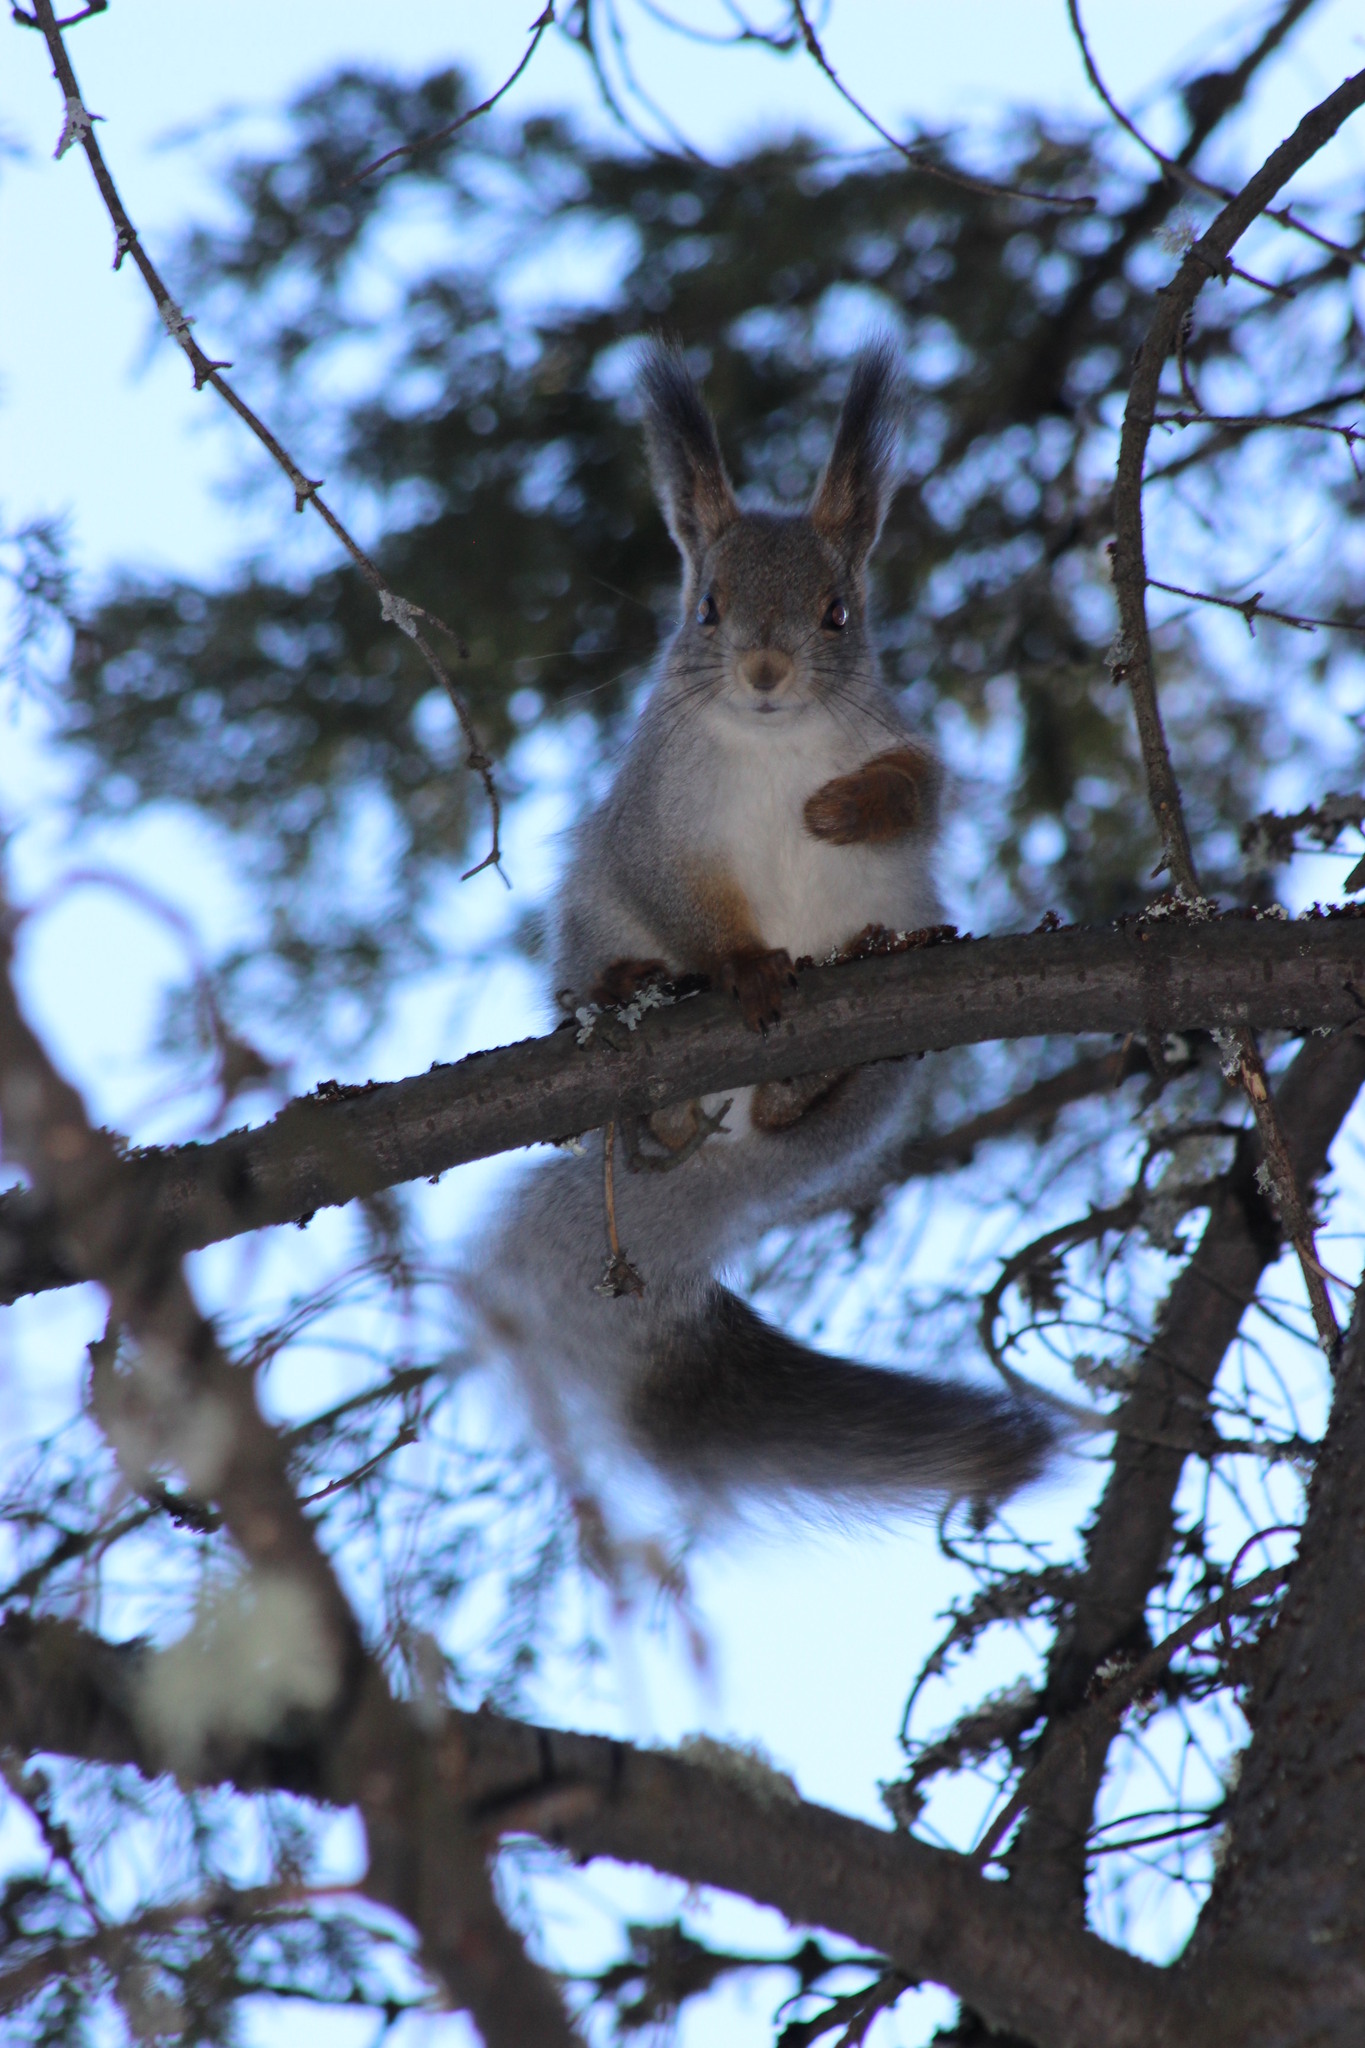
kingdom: Animalia
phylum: Chordata
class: Mammalia
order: Rodentia
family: Sciuridae
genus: Sciurus
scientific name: Sciurus vulgaris
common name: Eurasian red squirrel
